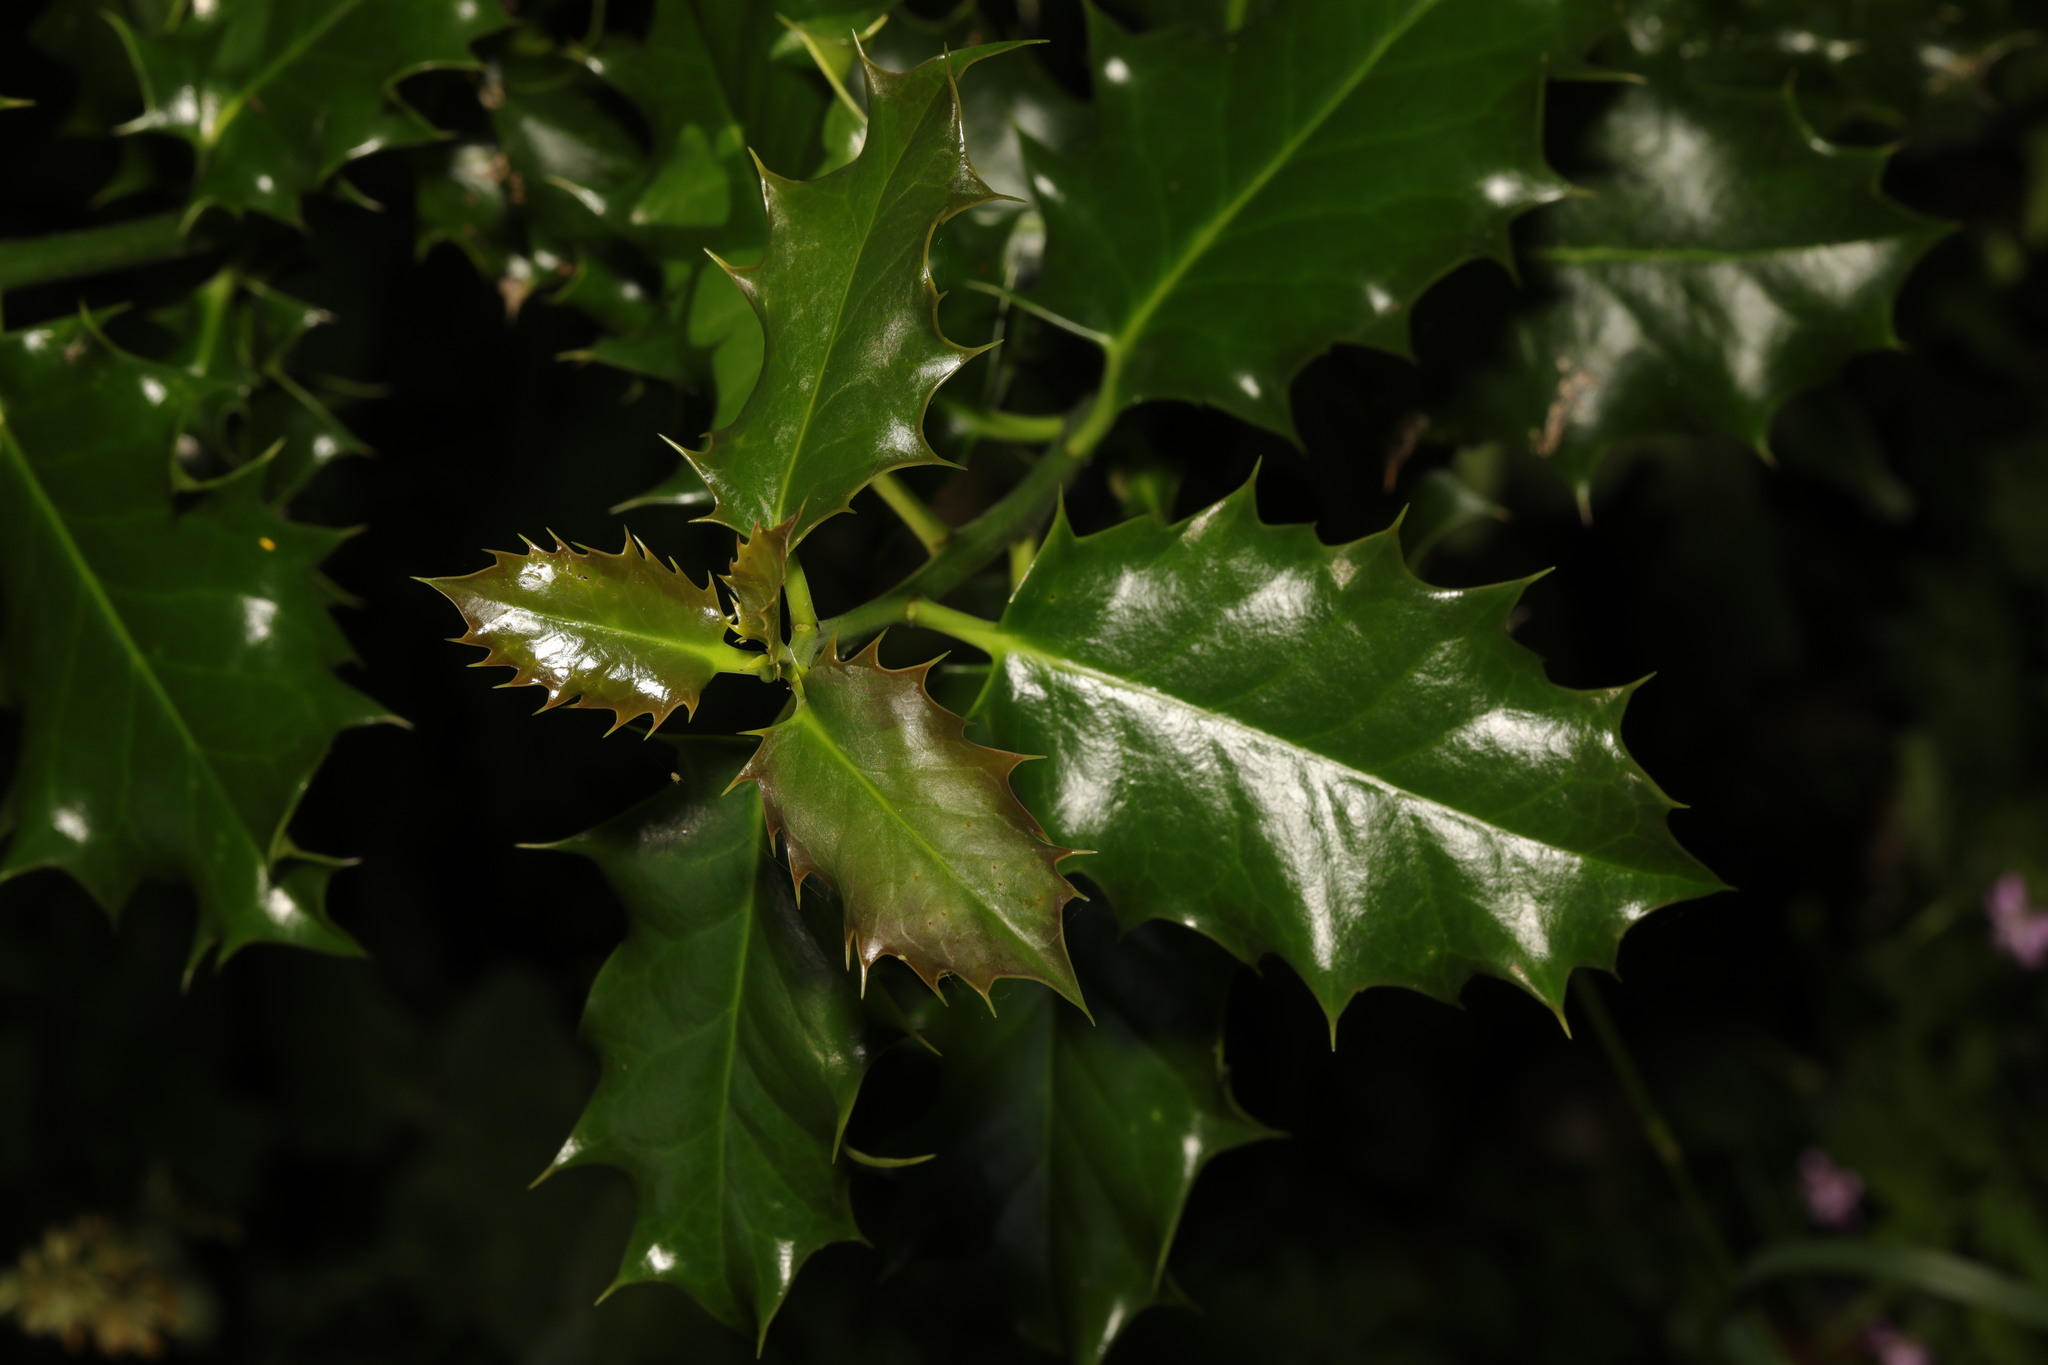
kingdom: Plantae
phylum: Tracheophyta
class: Magnoliopsida
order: Aquifoliales
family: Aquifoliaceae
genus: Ilex
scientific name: Ilex aquifolium
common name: English holly
